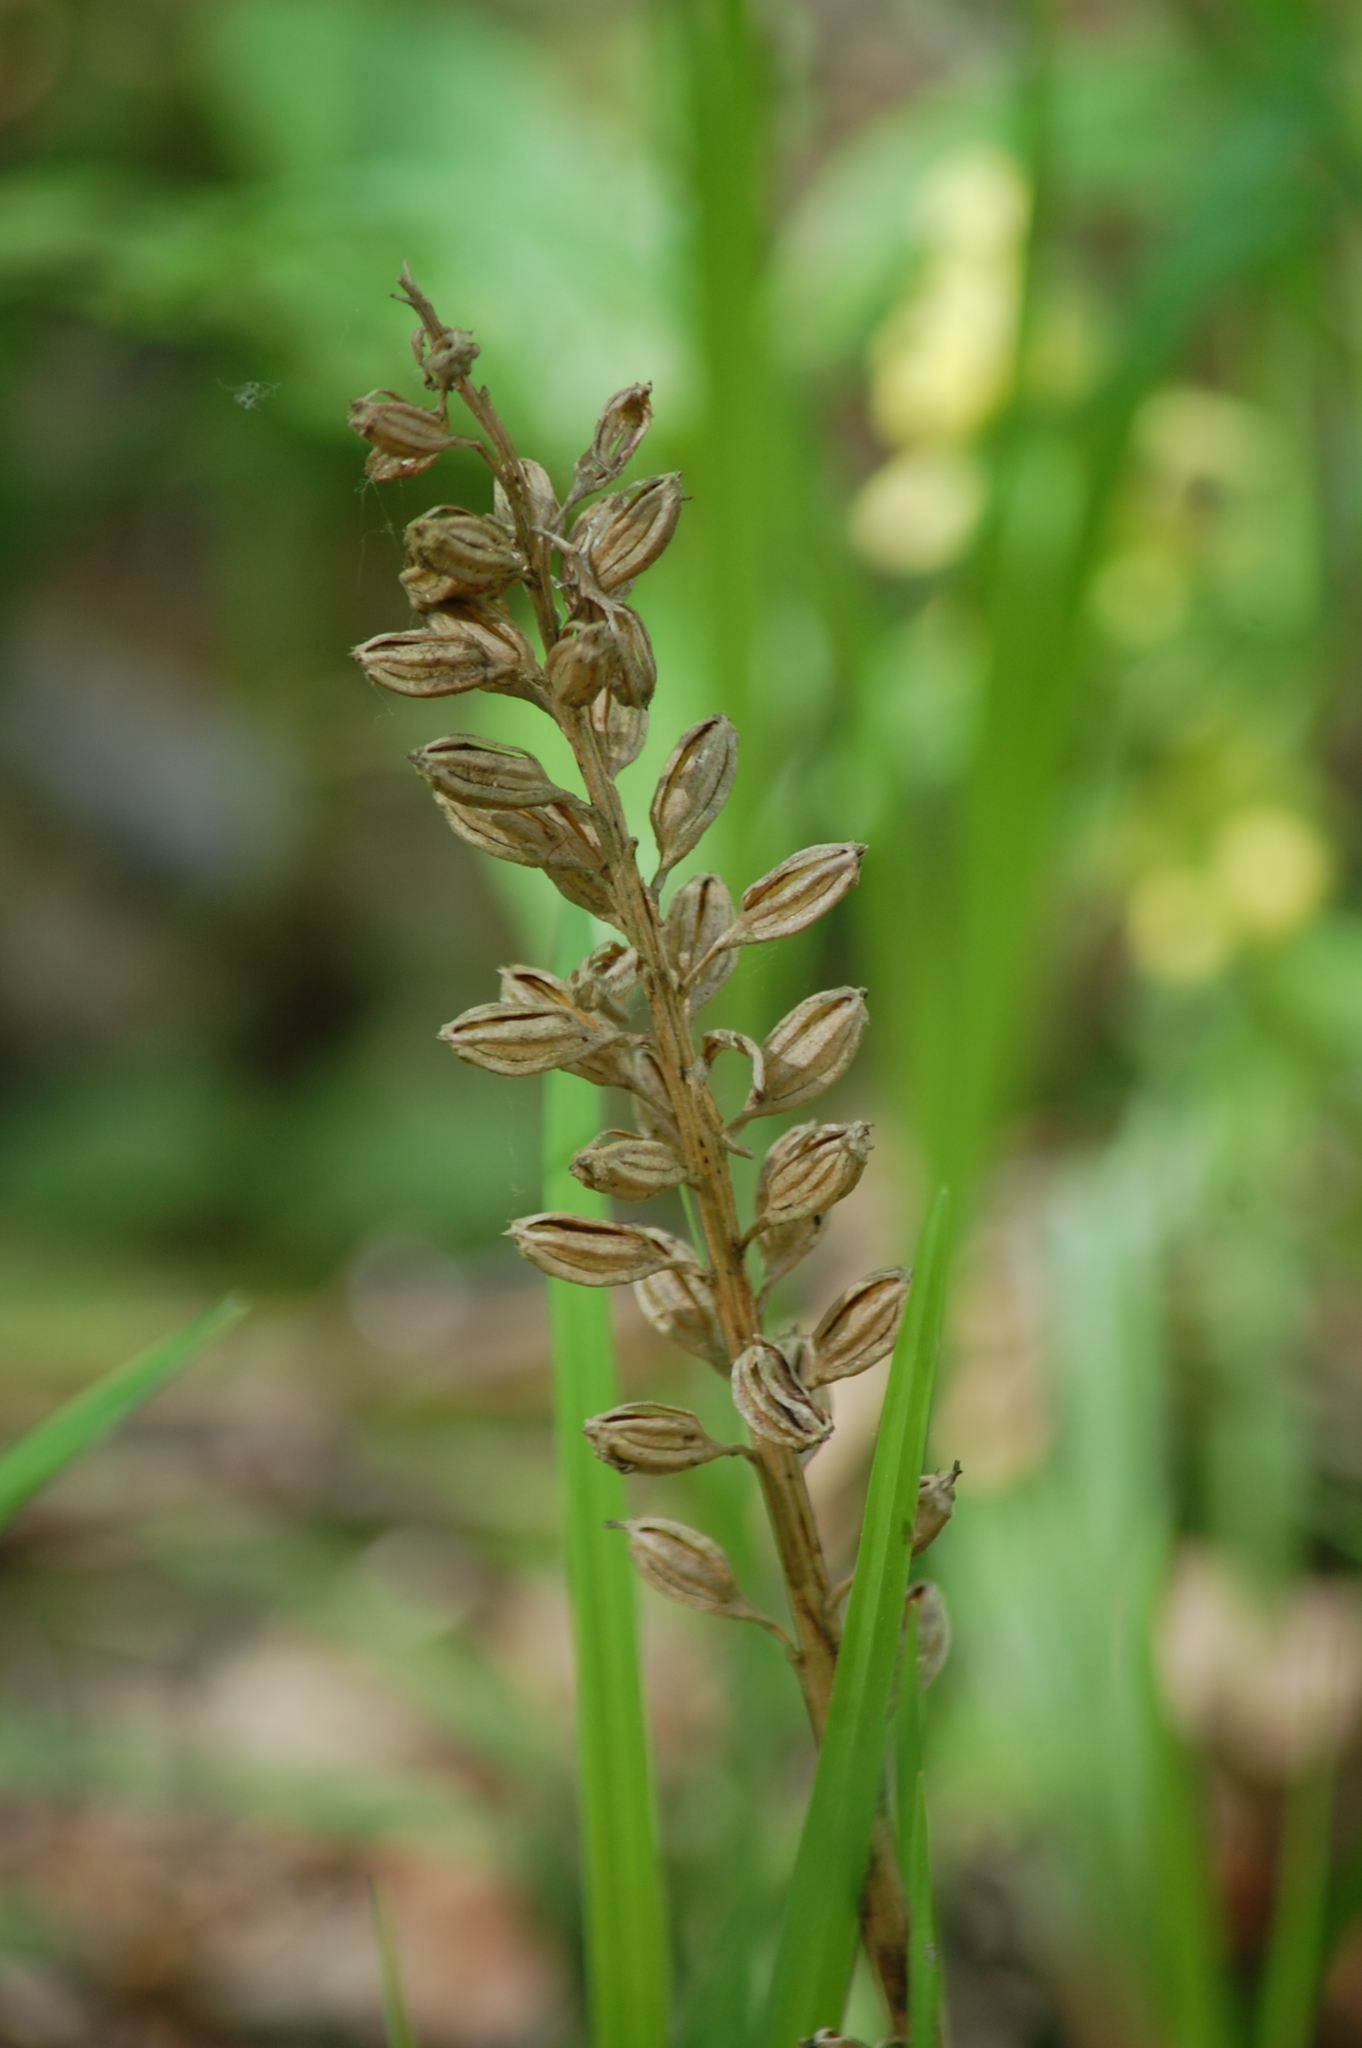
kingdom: Plantae
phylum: Tracheophyta
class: Liliopsida
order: Asparagales
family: Orchidaceae
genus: Neottia
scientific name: Neottia nidus-avis
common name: Bird's-nest orchid
